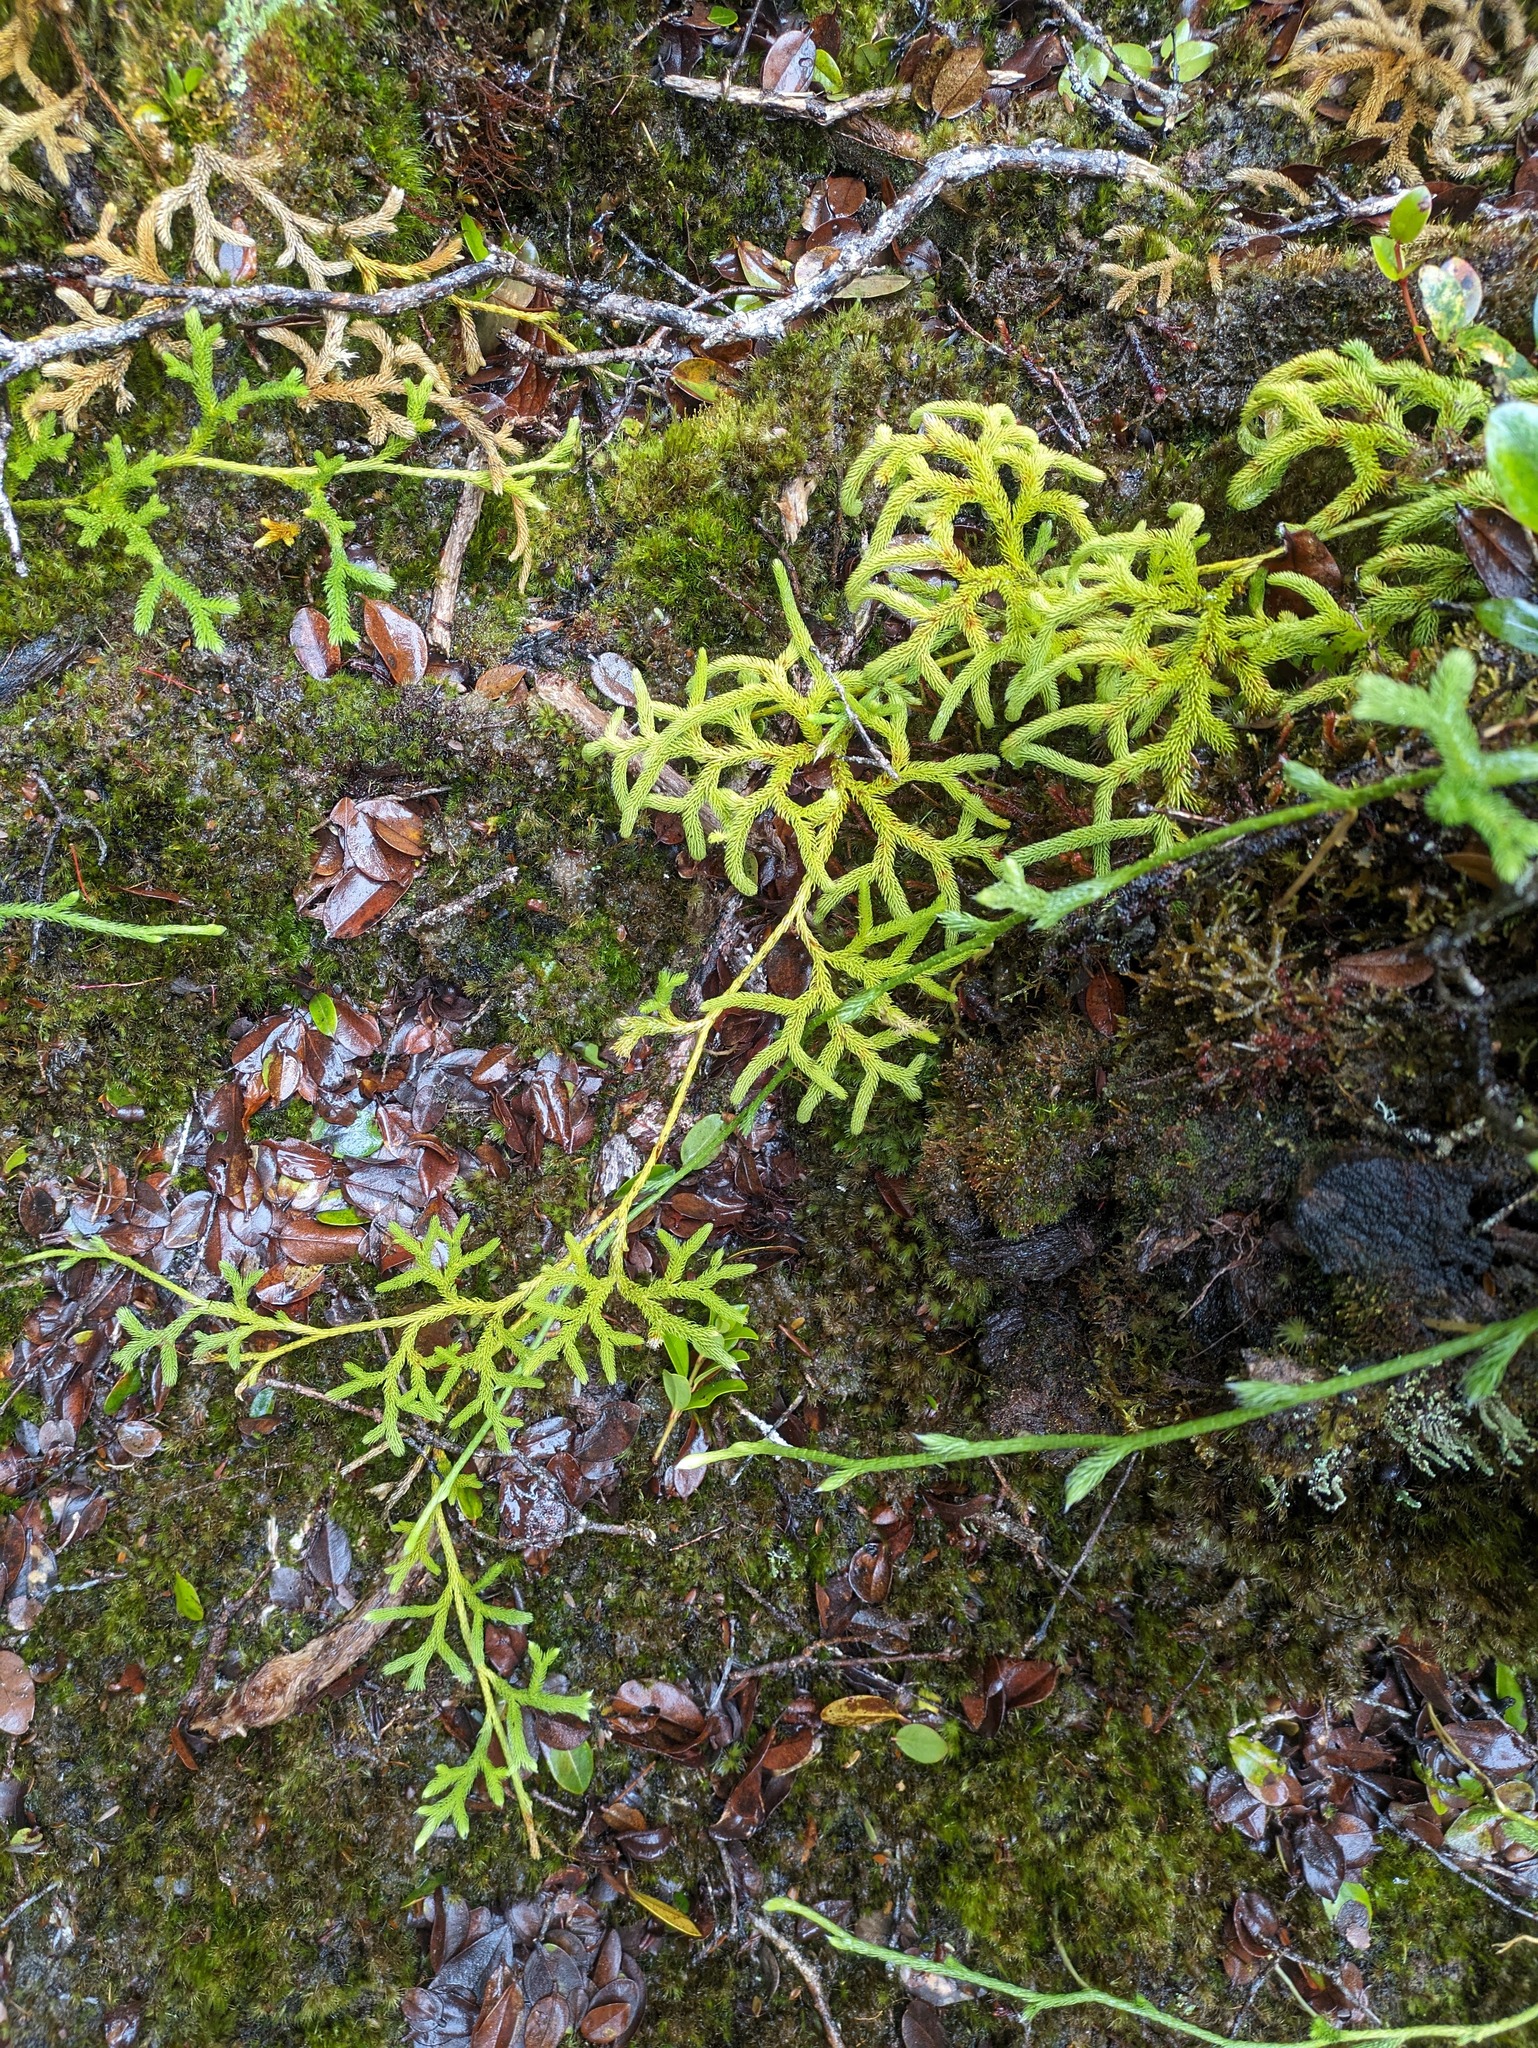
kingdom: Plantae
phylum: Tracheophyta
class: Lycopodiopsida
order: Lycopodiales
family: Lycopodiaceae
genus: Lycopodium
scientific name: Lycopodium venustulum
